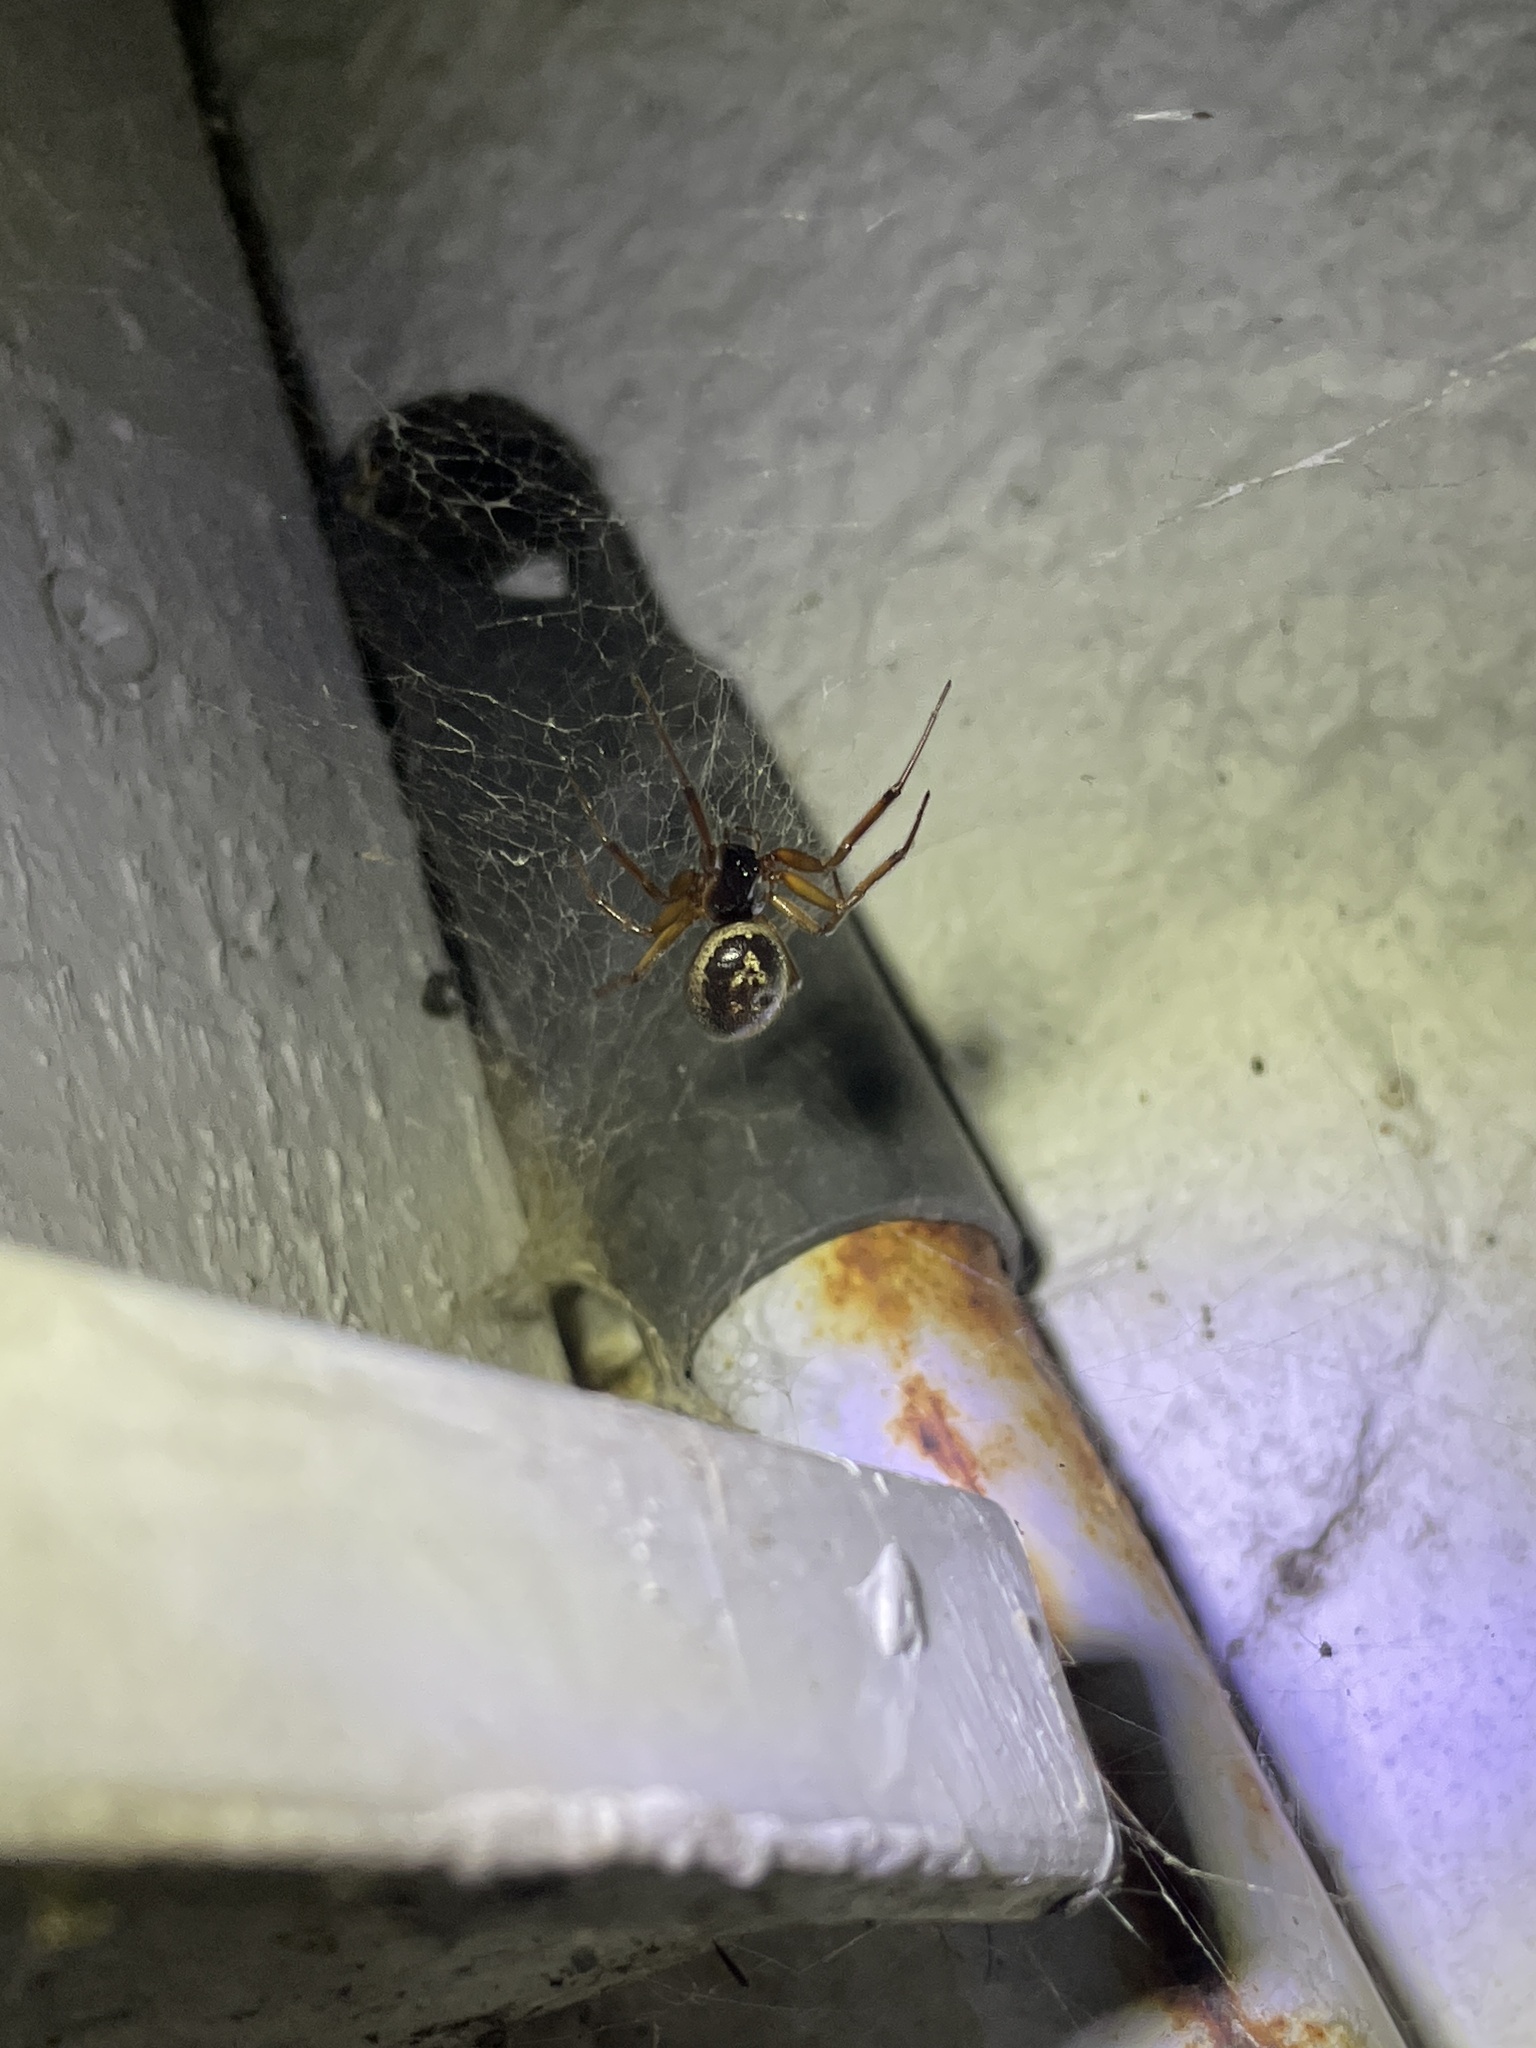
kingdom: Animalia
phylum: Arthropoda
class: Arachnida
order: Araneae
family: Theridiidae
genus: Steatoda
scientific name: Steatoda nobilis
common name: Cobweb weaver
